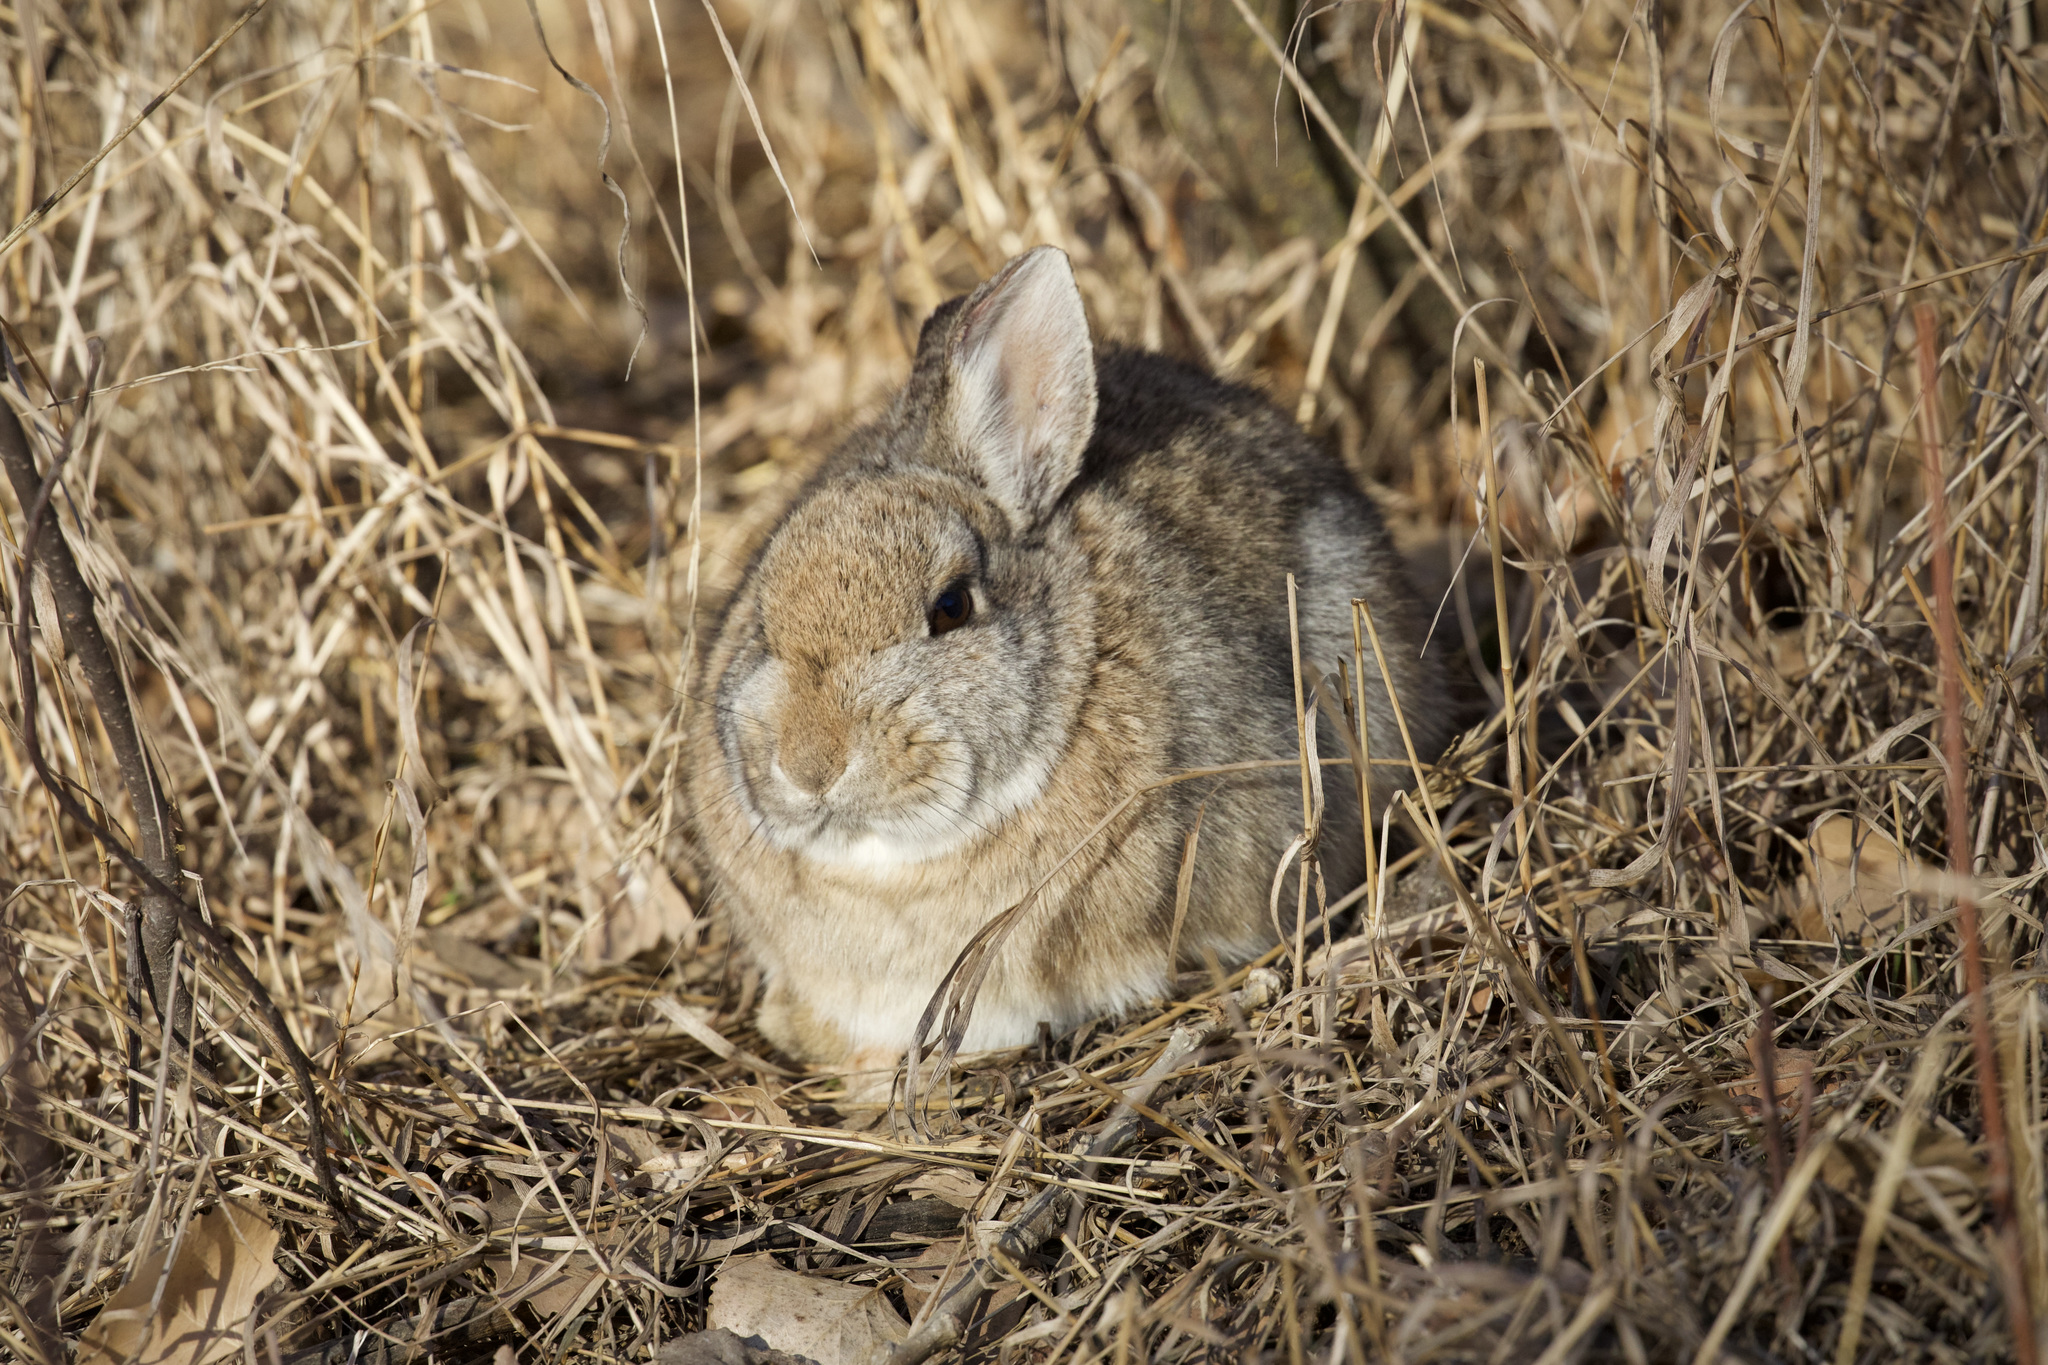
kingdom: Animalia
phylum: Chordata
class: Mammalia
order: Lagomorpha
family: Leporidae
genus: Sylvilagus
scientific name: Sylvilagus nuttallii
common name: Mountain cottontail
